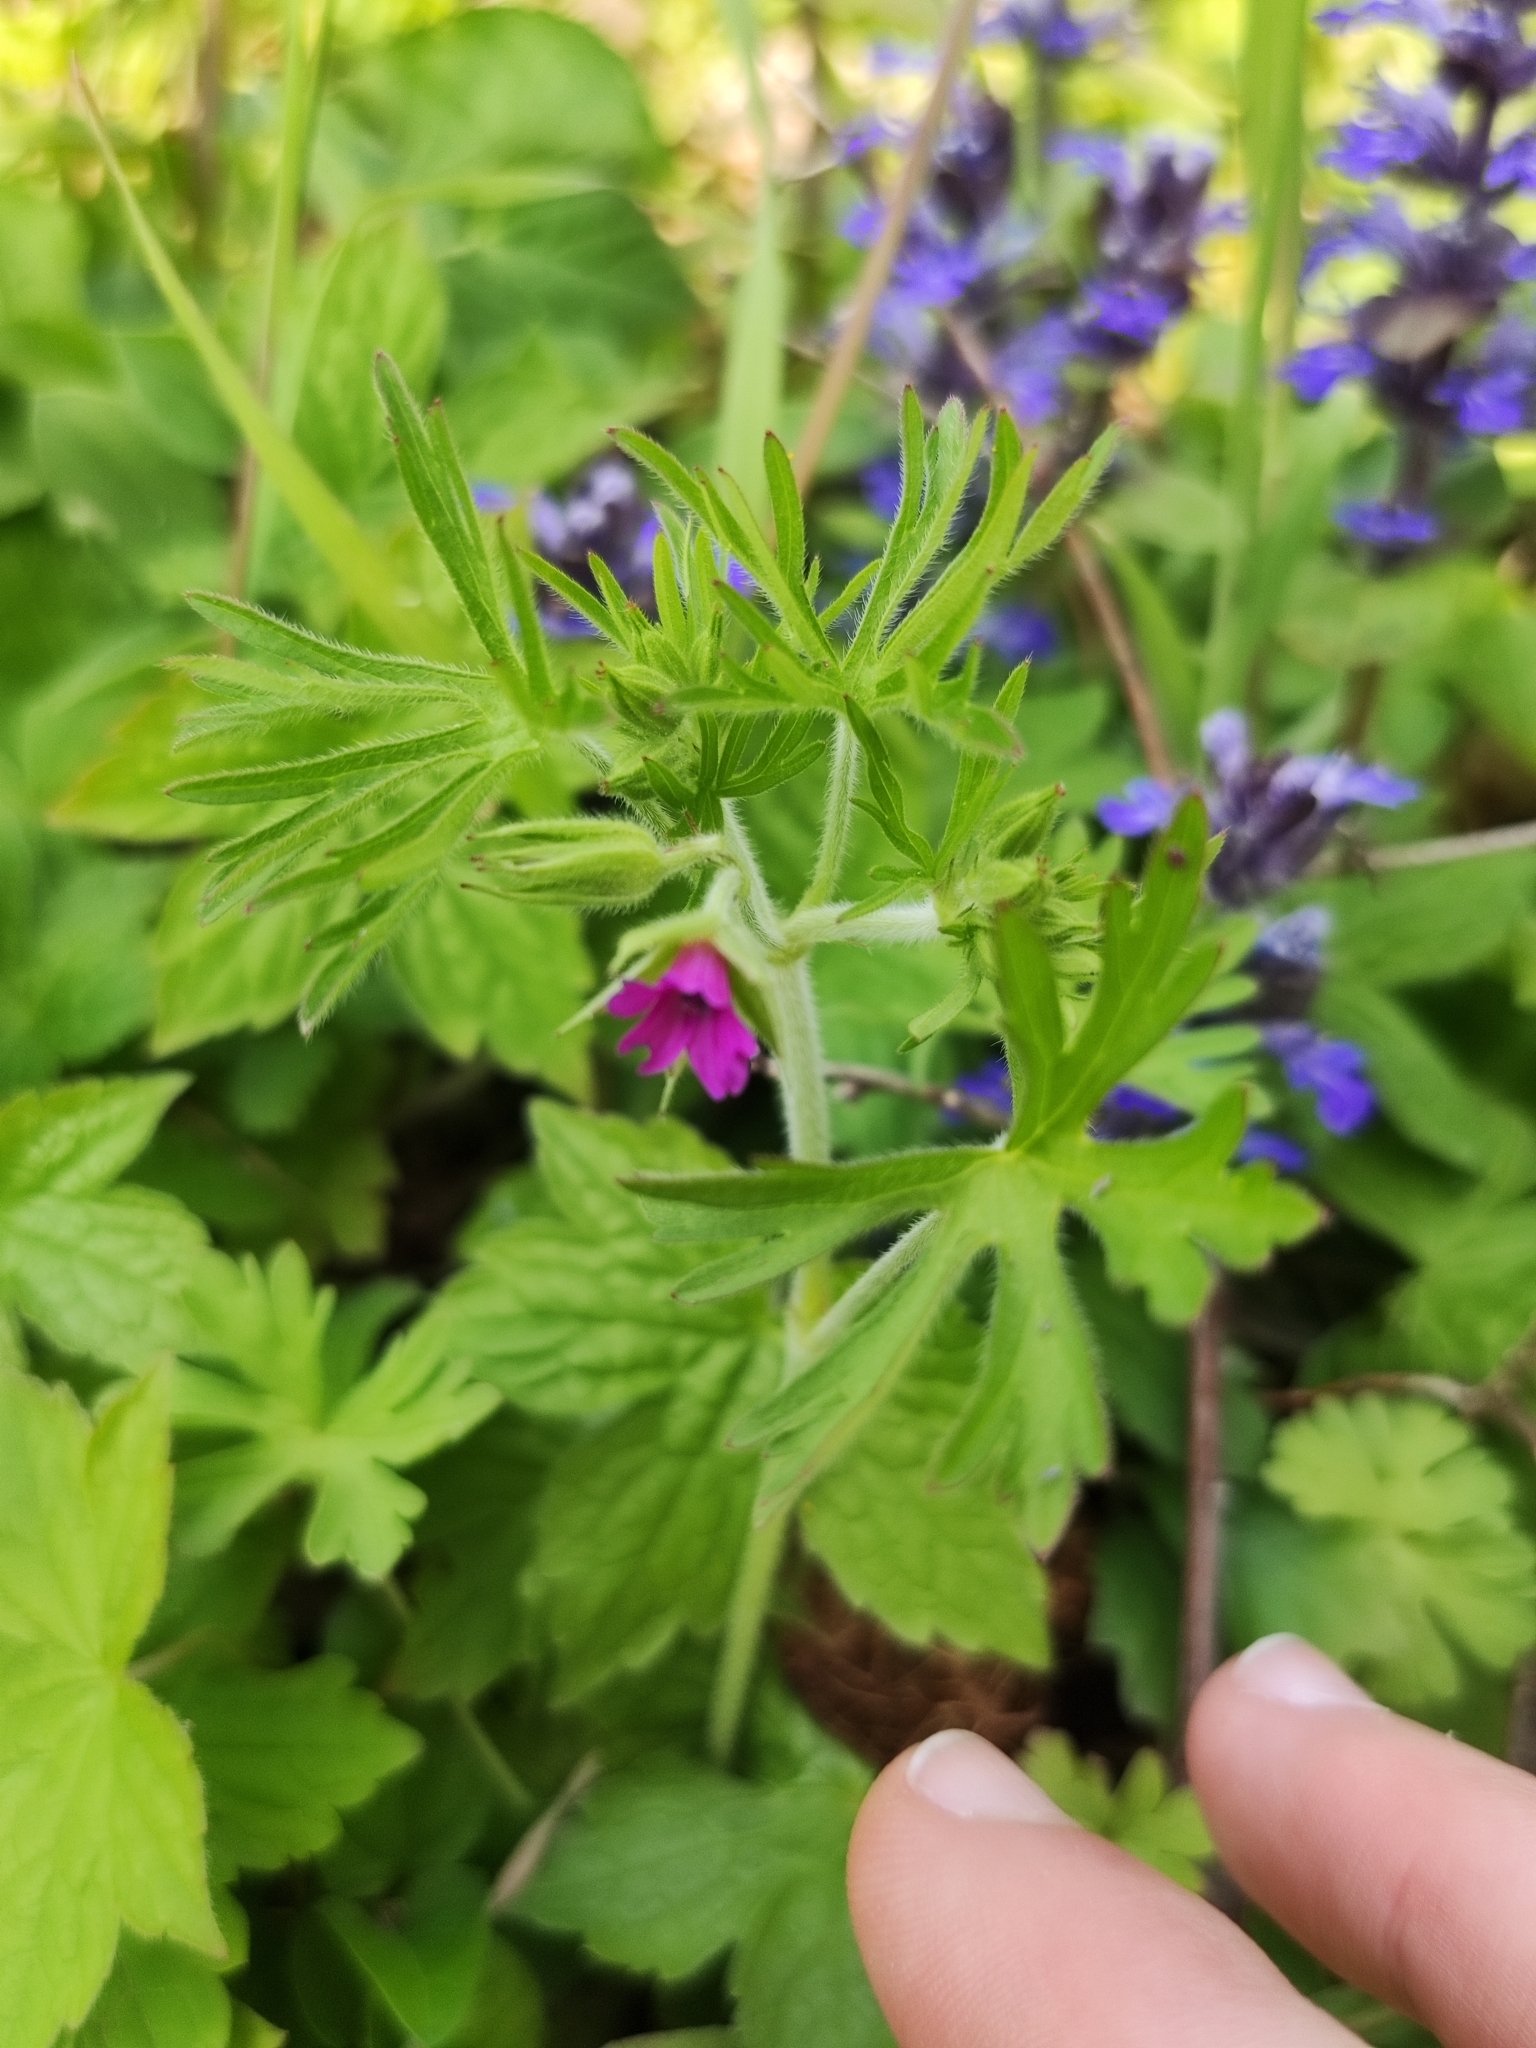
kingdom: Plantae
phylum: Tracheophyta
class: Magnoliopsida
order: Geraniales
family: Geraniaceae
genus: Geranium
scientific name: Geranium dissectum
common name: Cut-leaved crane's-bill
